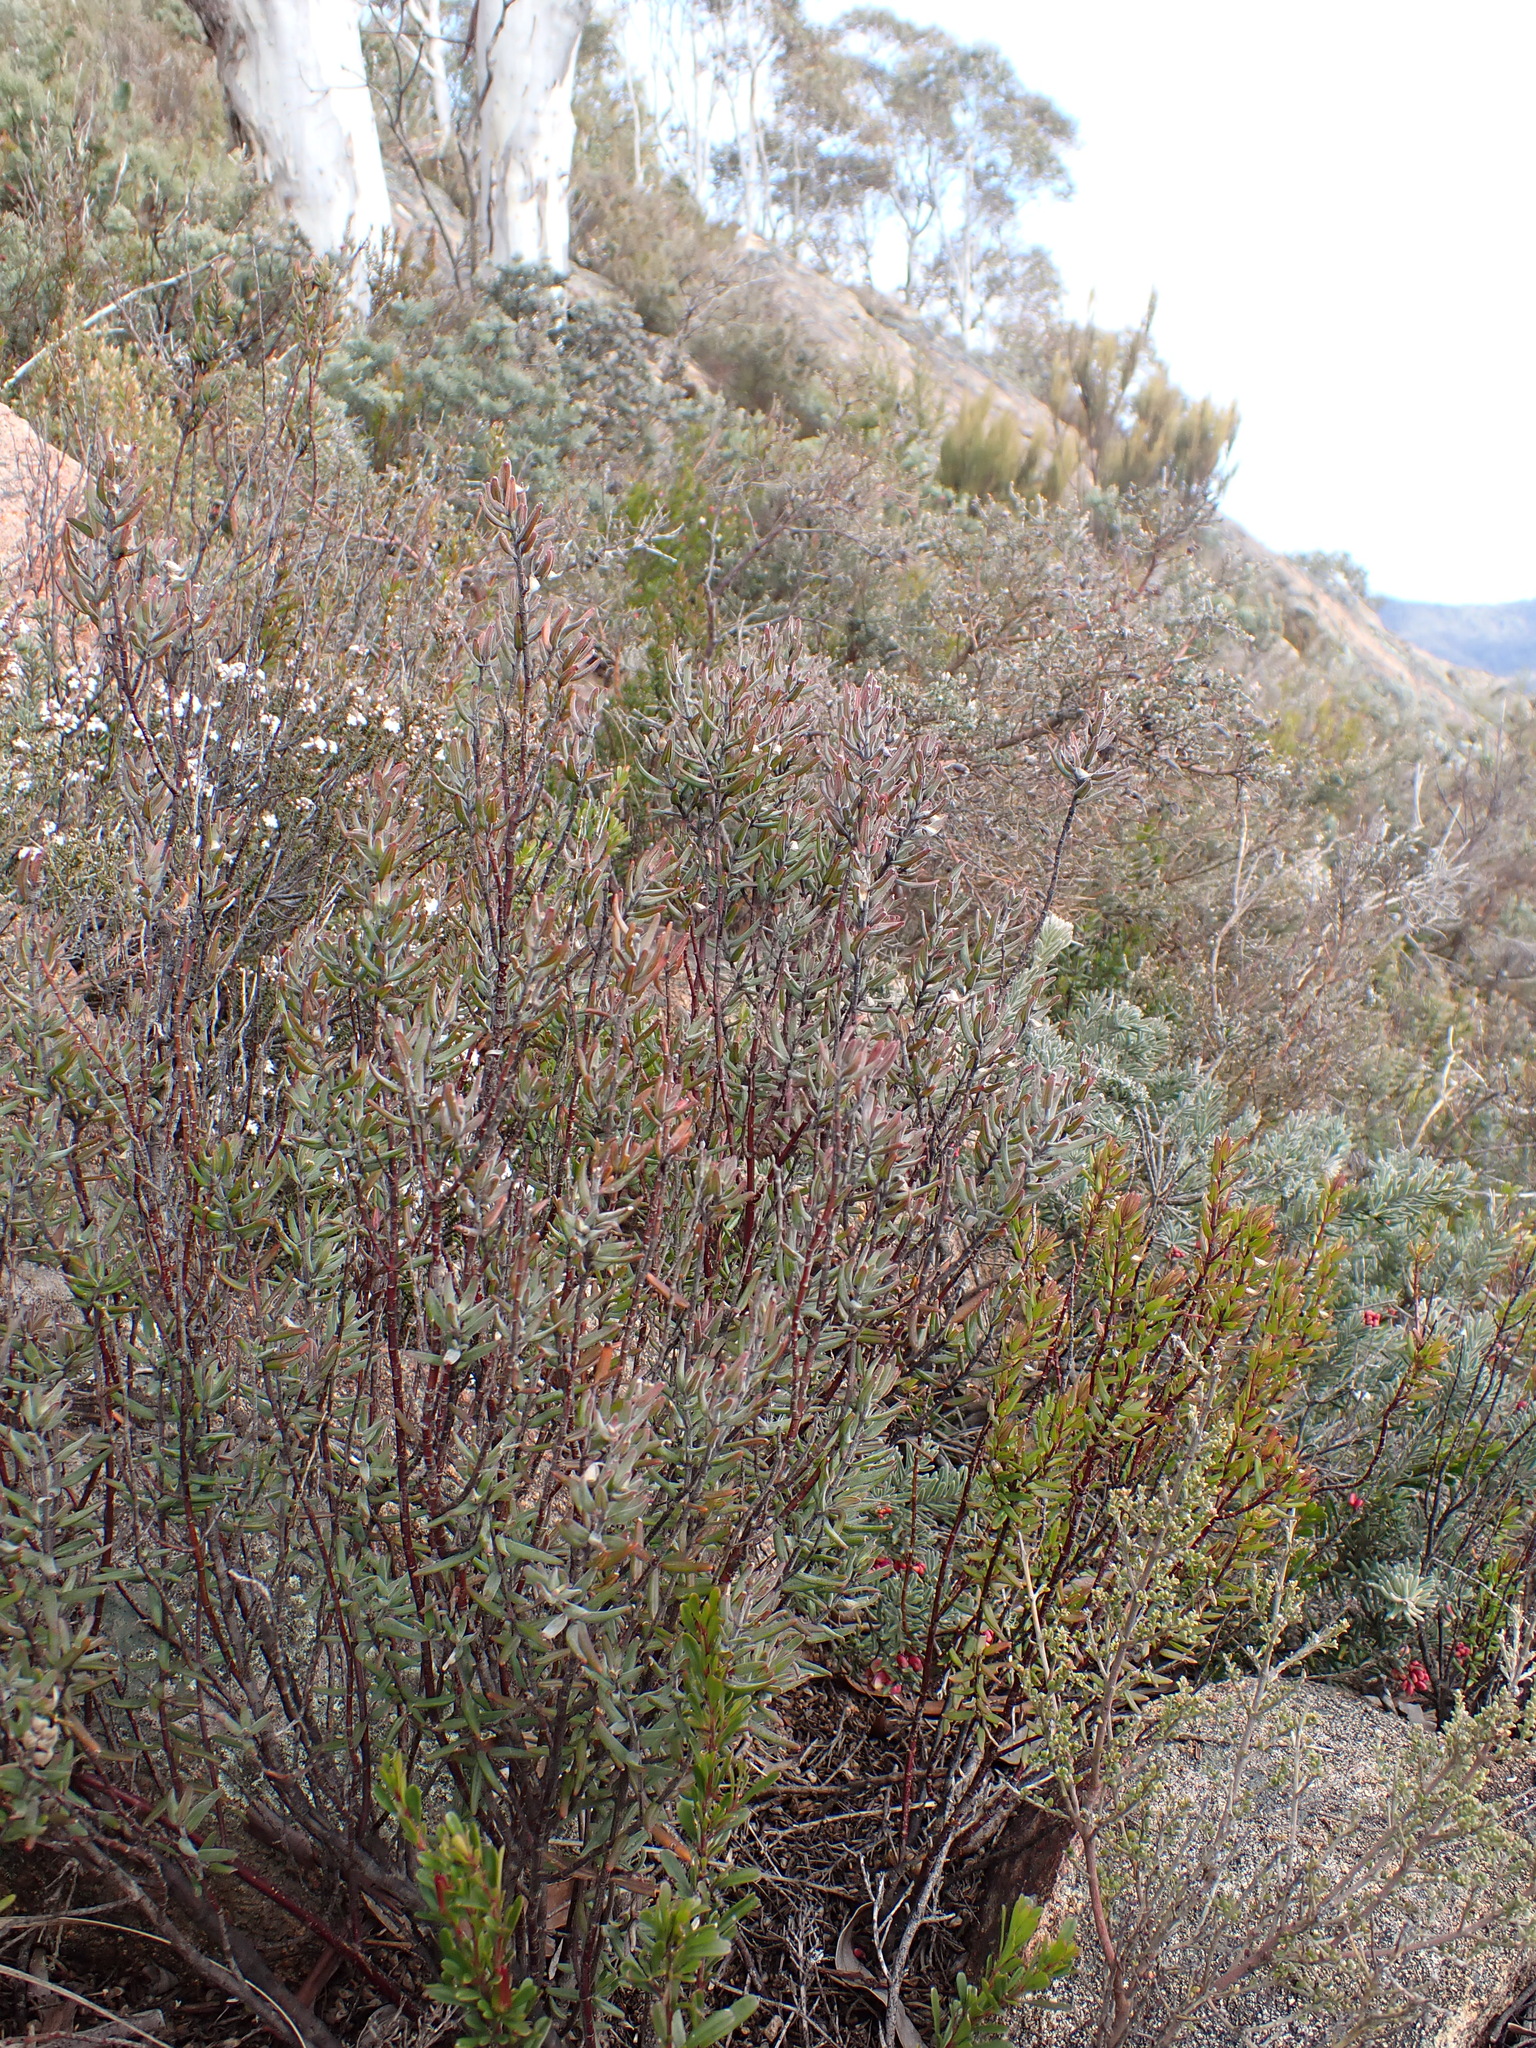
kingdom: Plantae
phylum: Tracheophyta
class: Magnoliopsida
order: Lamiales
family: Lamiaceae
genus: Prostanthera
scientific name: Prostanthera phylicifolia
